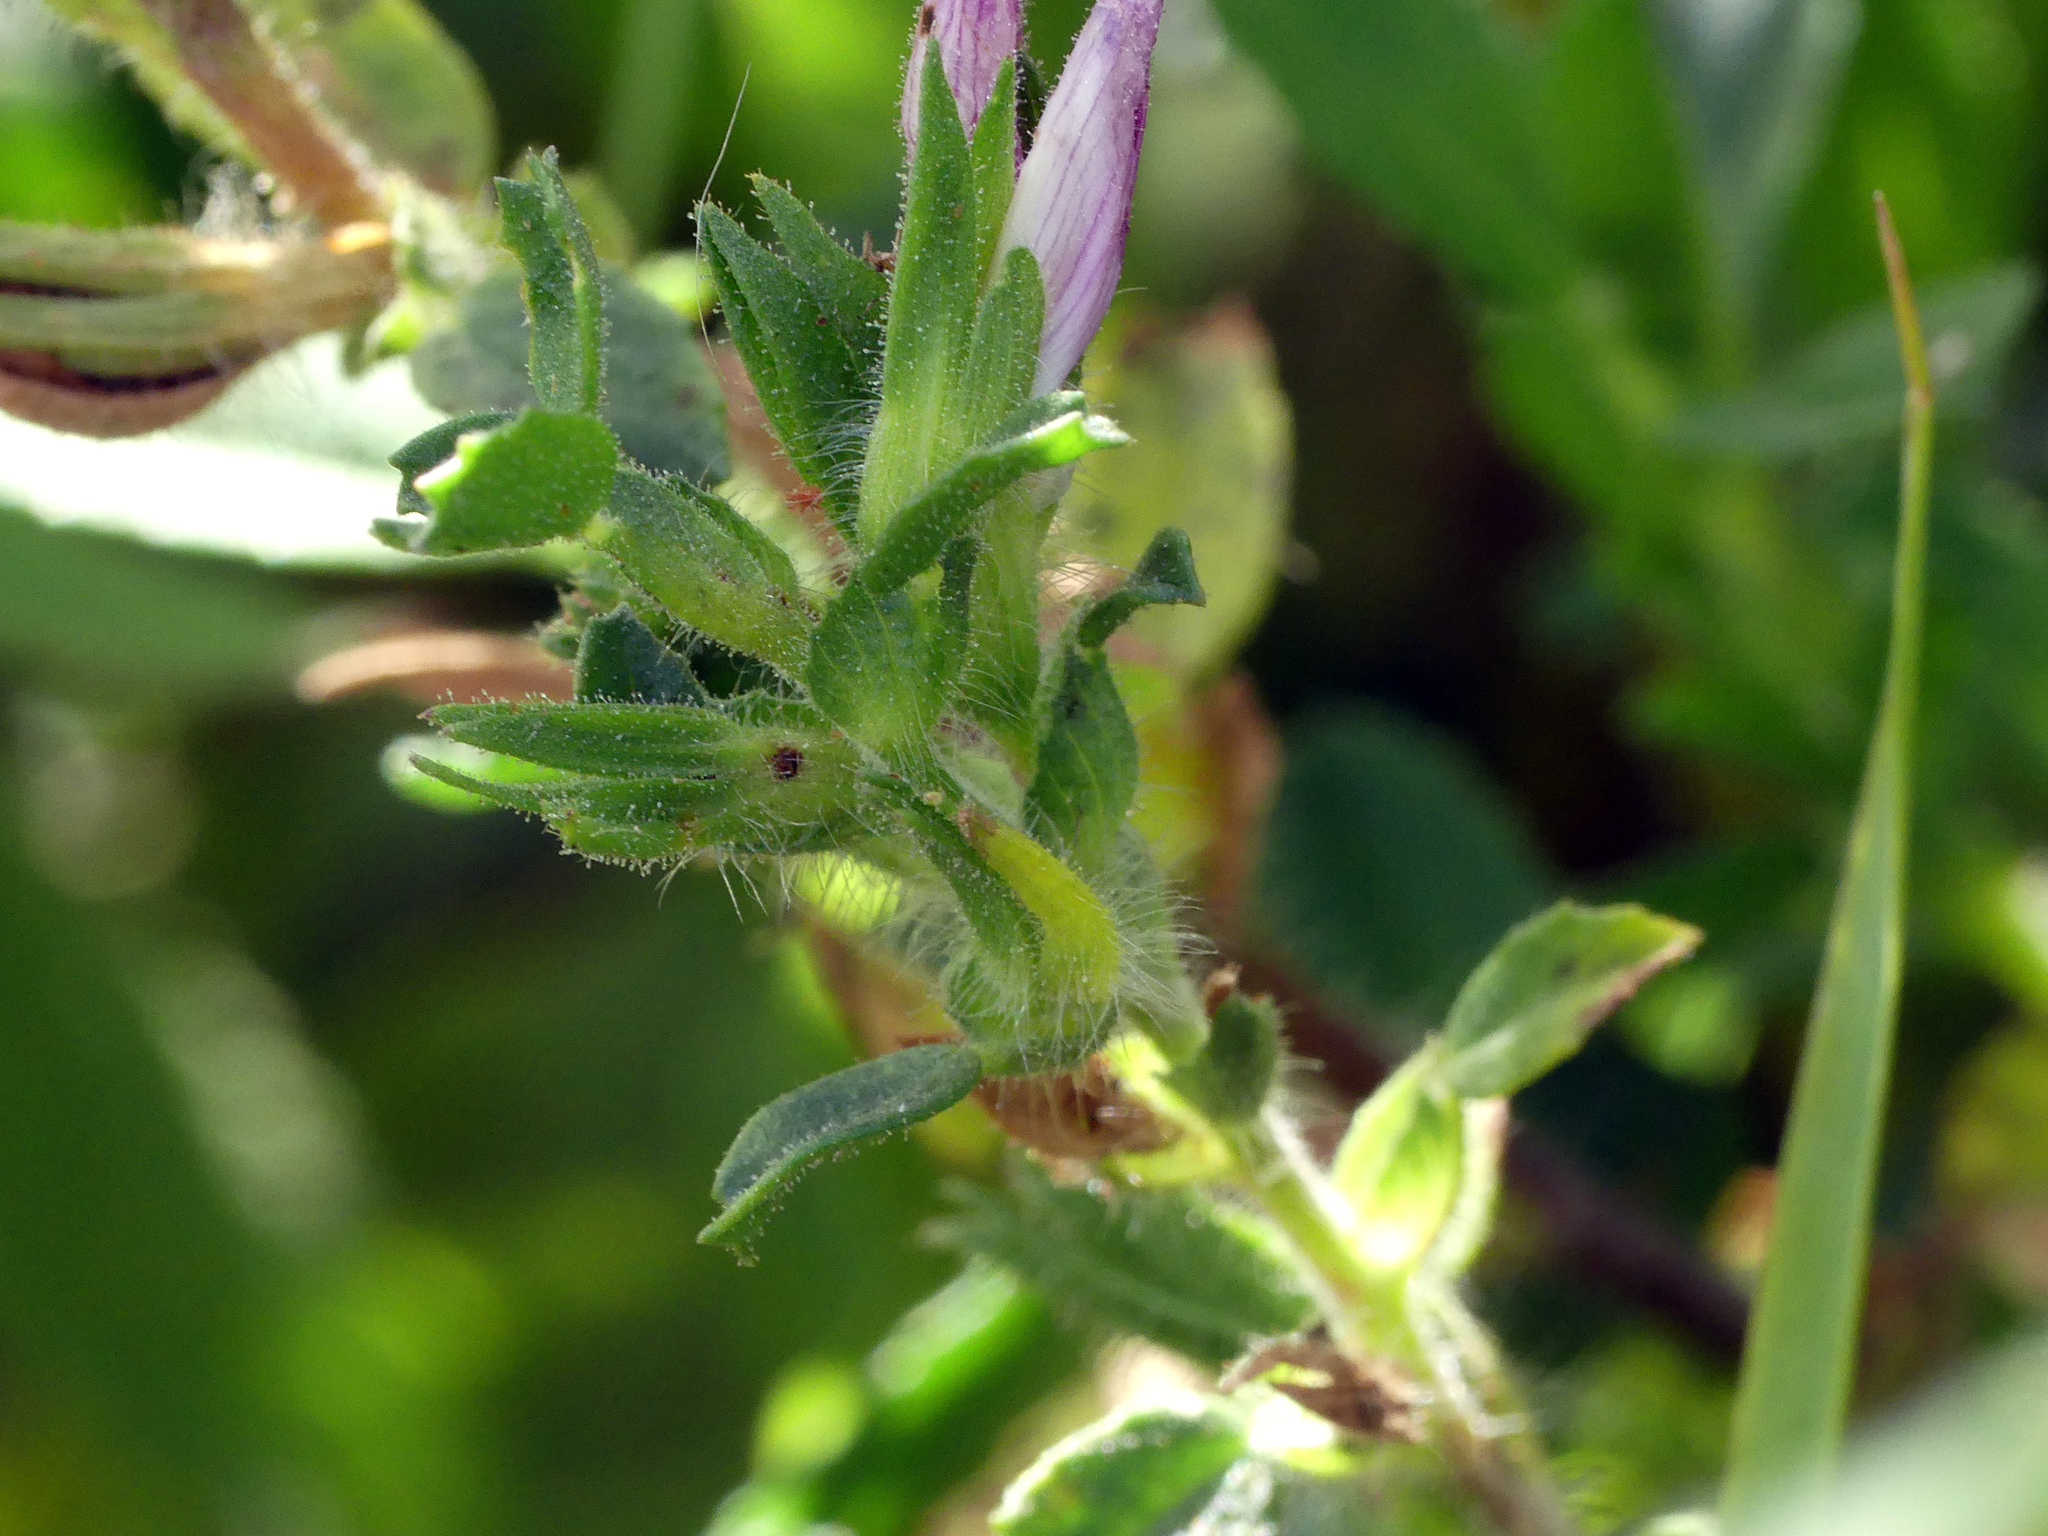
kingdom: Plantae
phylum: Tracheophyta
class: Magnoliopsida
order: Fabales
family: Fabaceae
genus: Ononis
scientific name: Ononis spinosa
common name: Spiny restharrow
